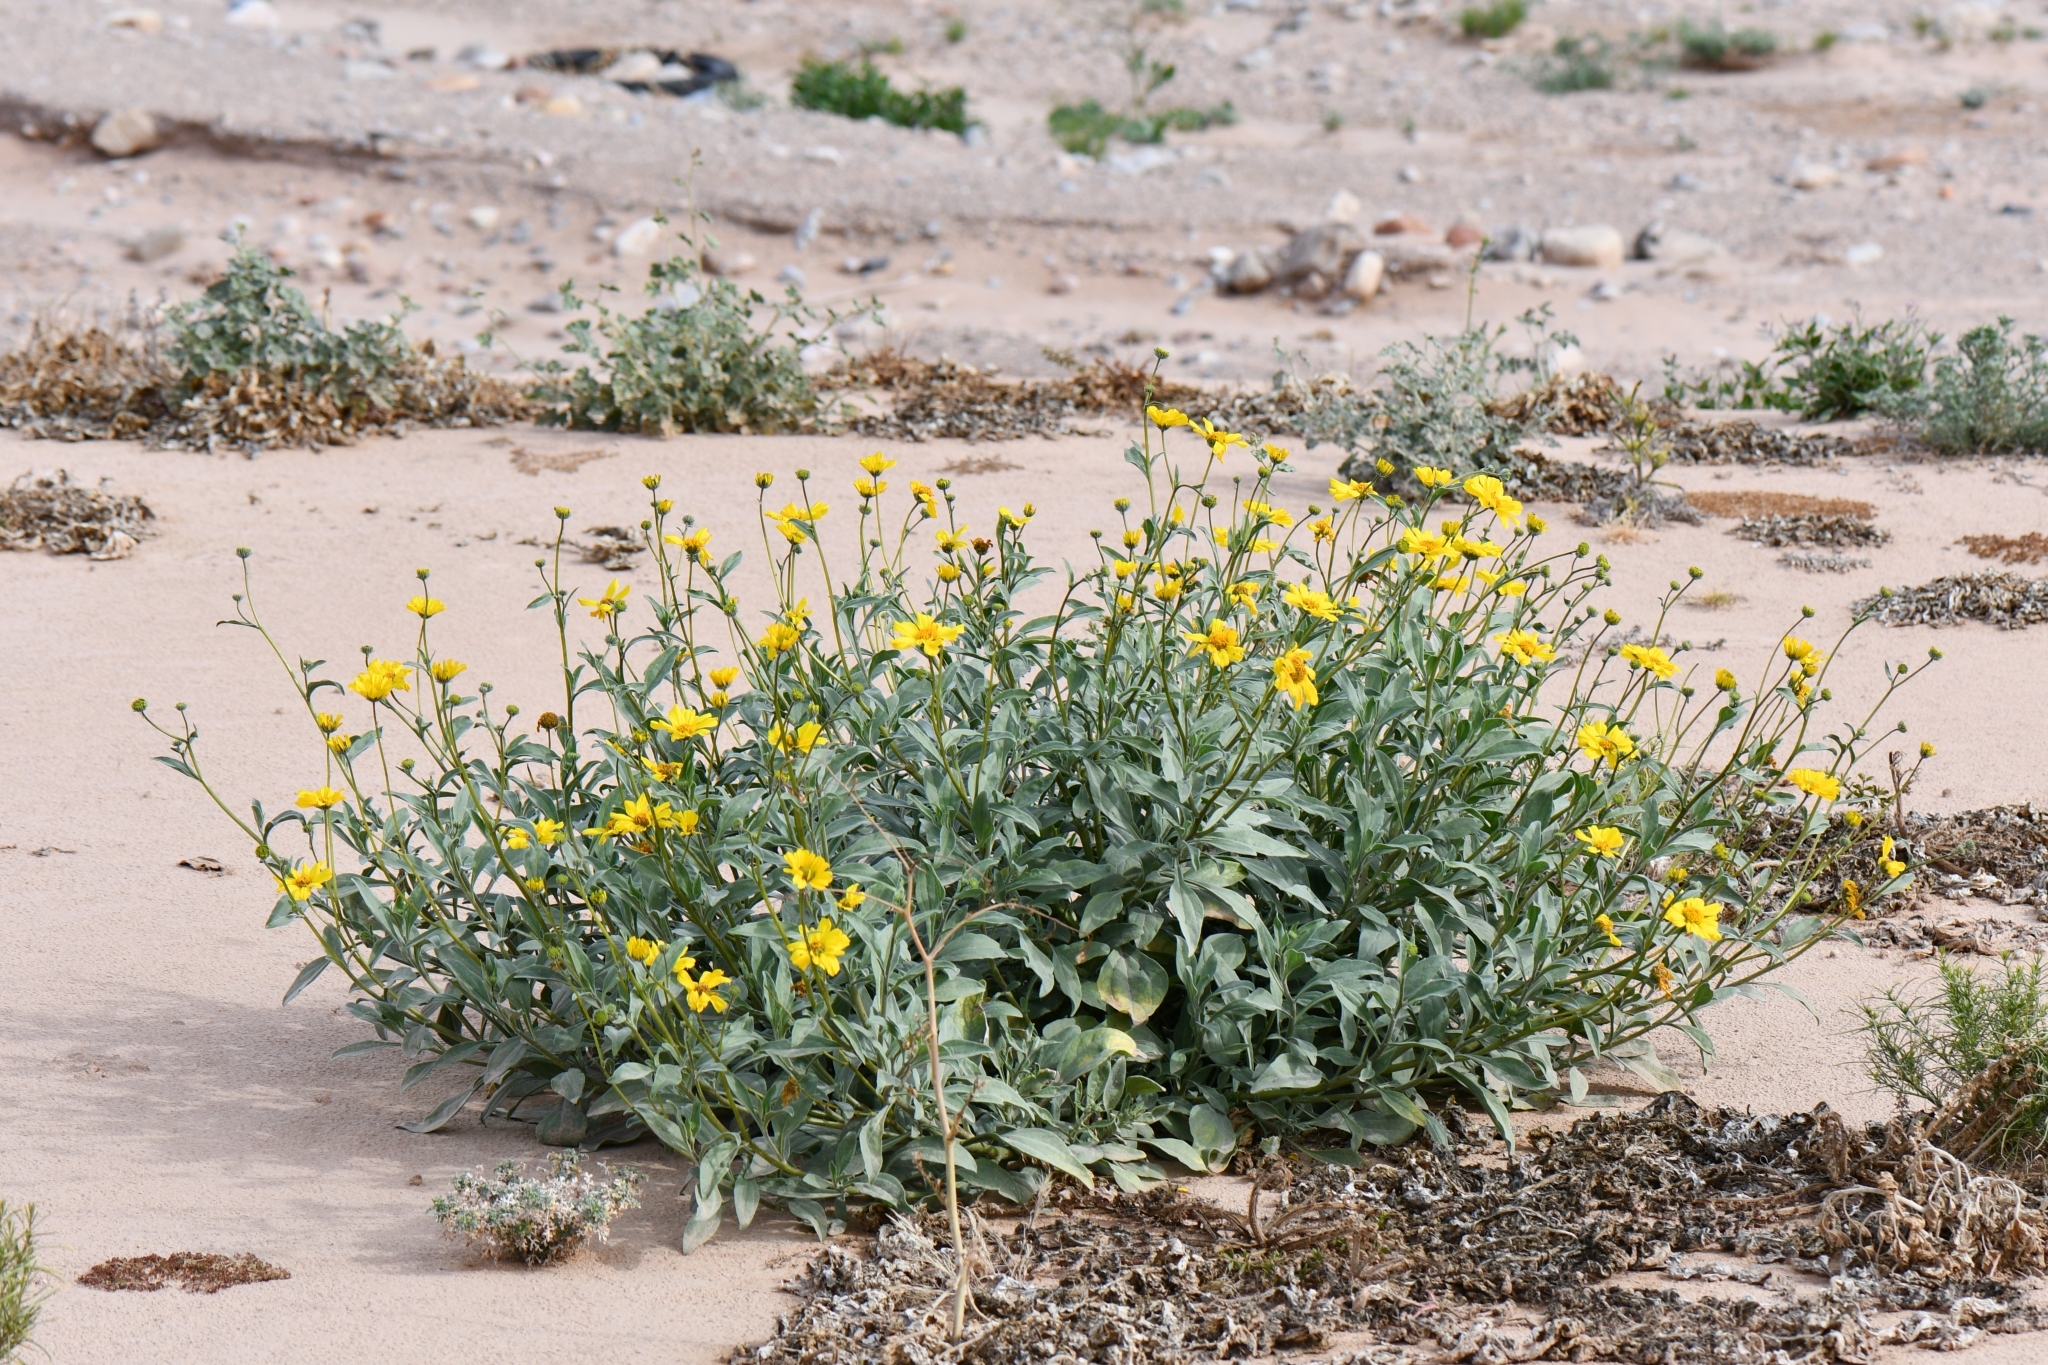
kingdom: Plantae
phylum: Tracheophyta
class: Magnoliopsida
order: Asterales
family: Asteraceae
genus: Encelia
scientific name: Encelia farinosa
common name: Brittlebush
